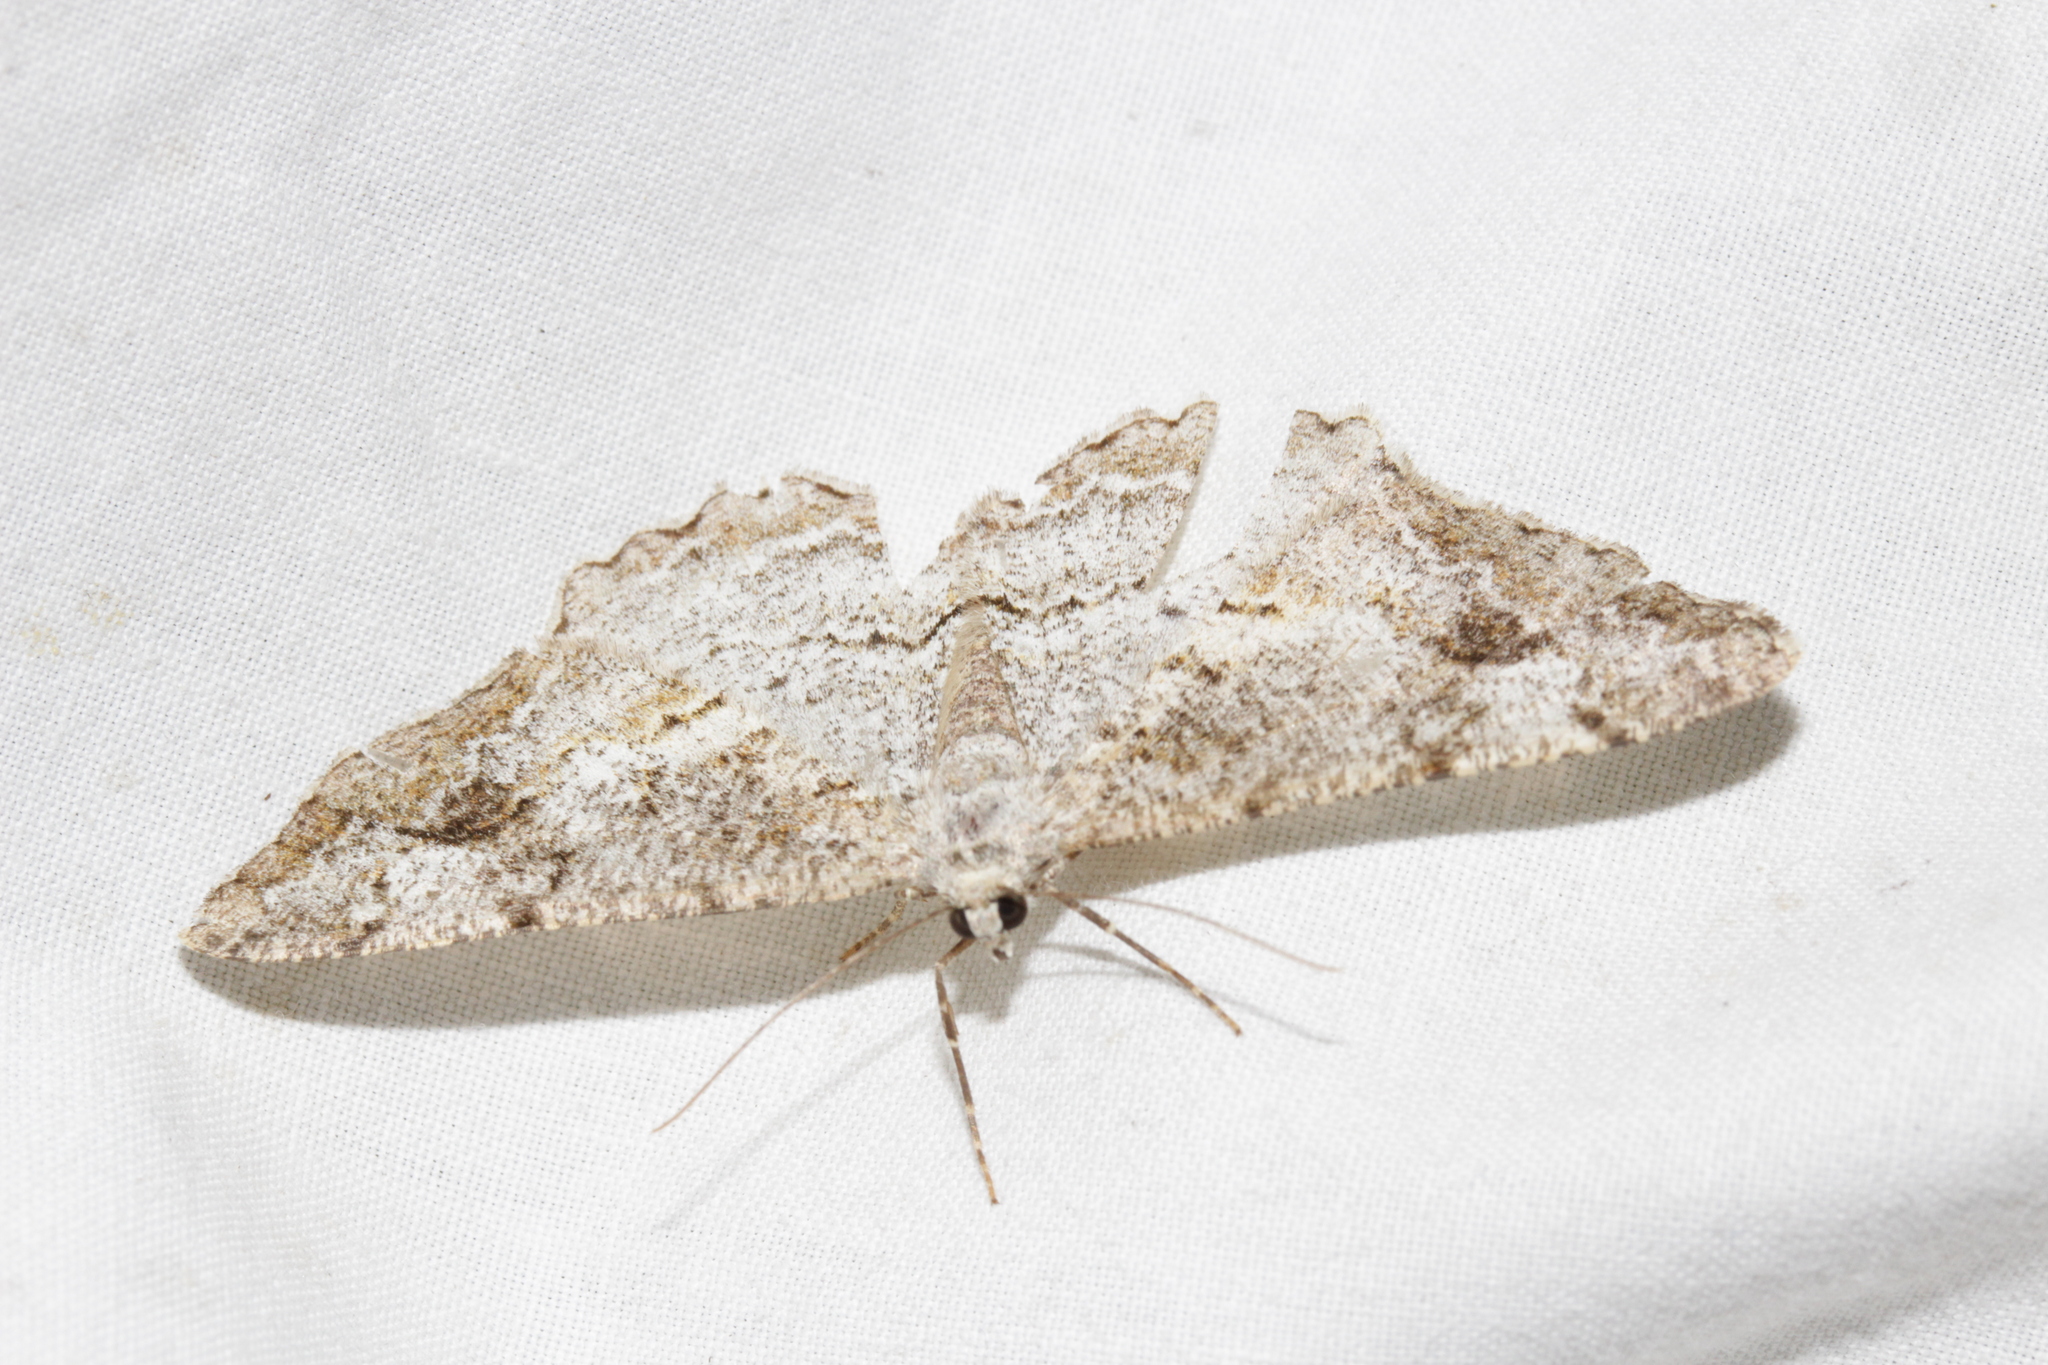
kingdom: Animalia
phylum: Arthropoda
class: Insecta
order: Lepidoptera
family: Geometridae
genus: Alcis
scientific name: Alcis repandata
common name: Mottled beauty
